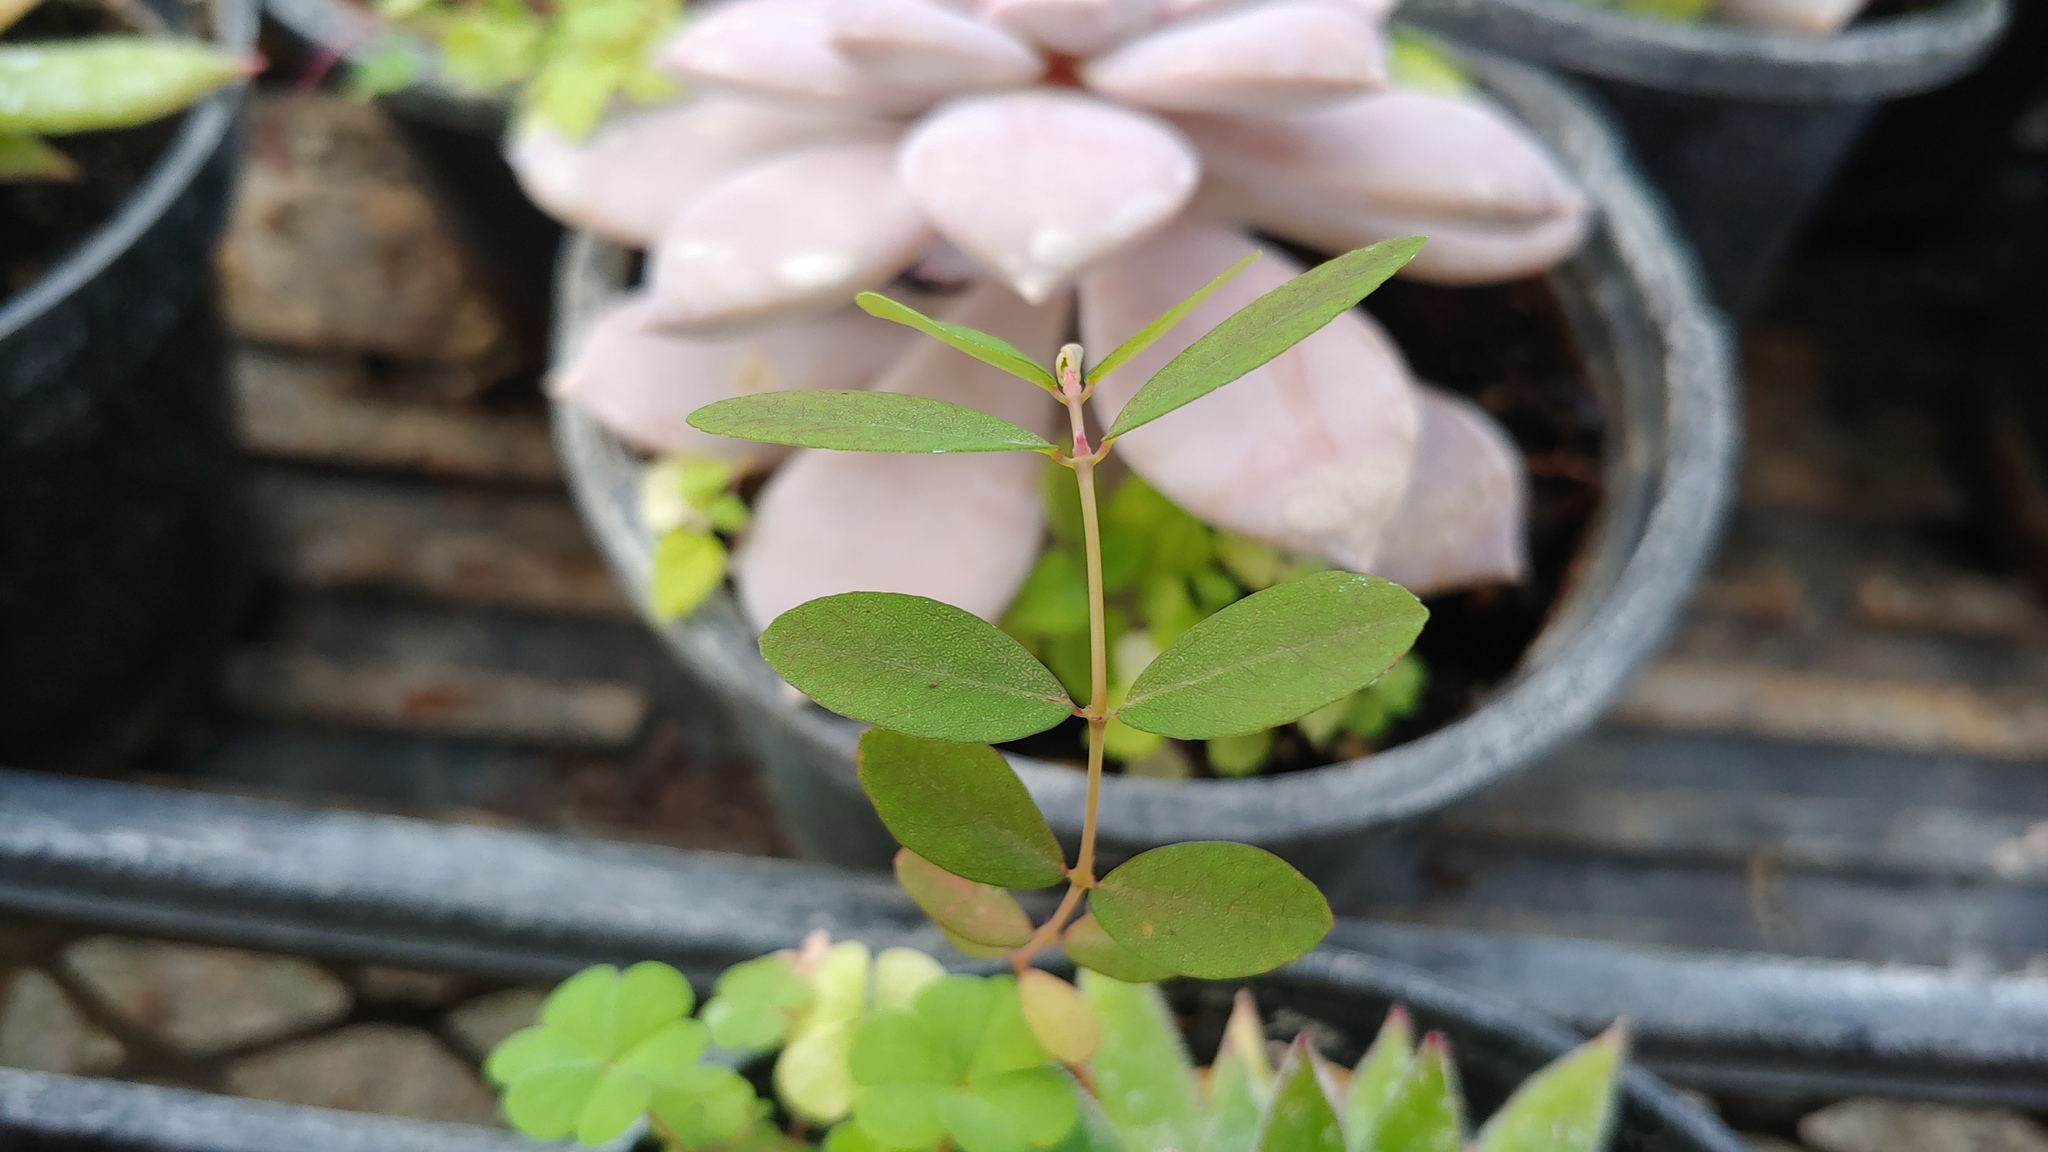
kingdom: Plantae
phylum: Tracheophyta
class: Magnoliopsida
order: Malpighiales
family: Euphorbiaceae
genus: Euphorbia
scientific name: Euphorbia hypericifolia
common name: Graceful sandmat
